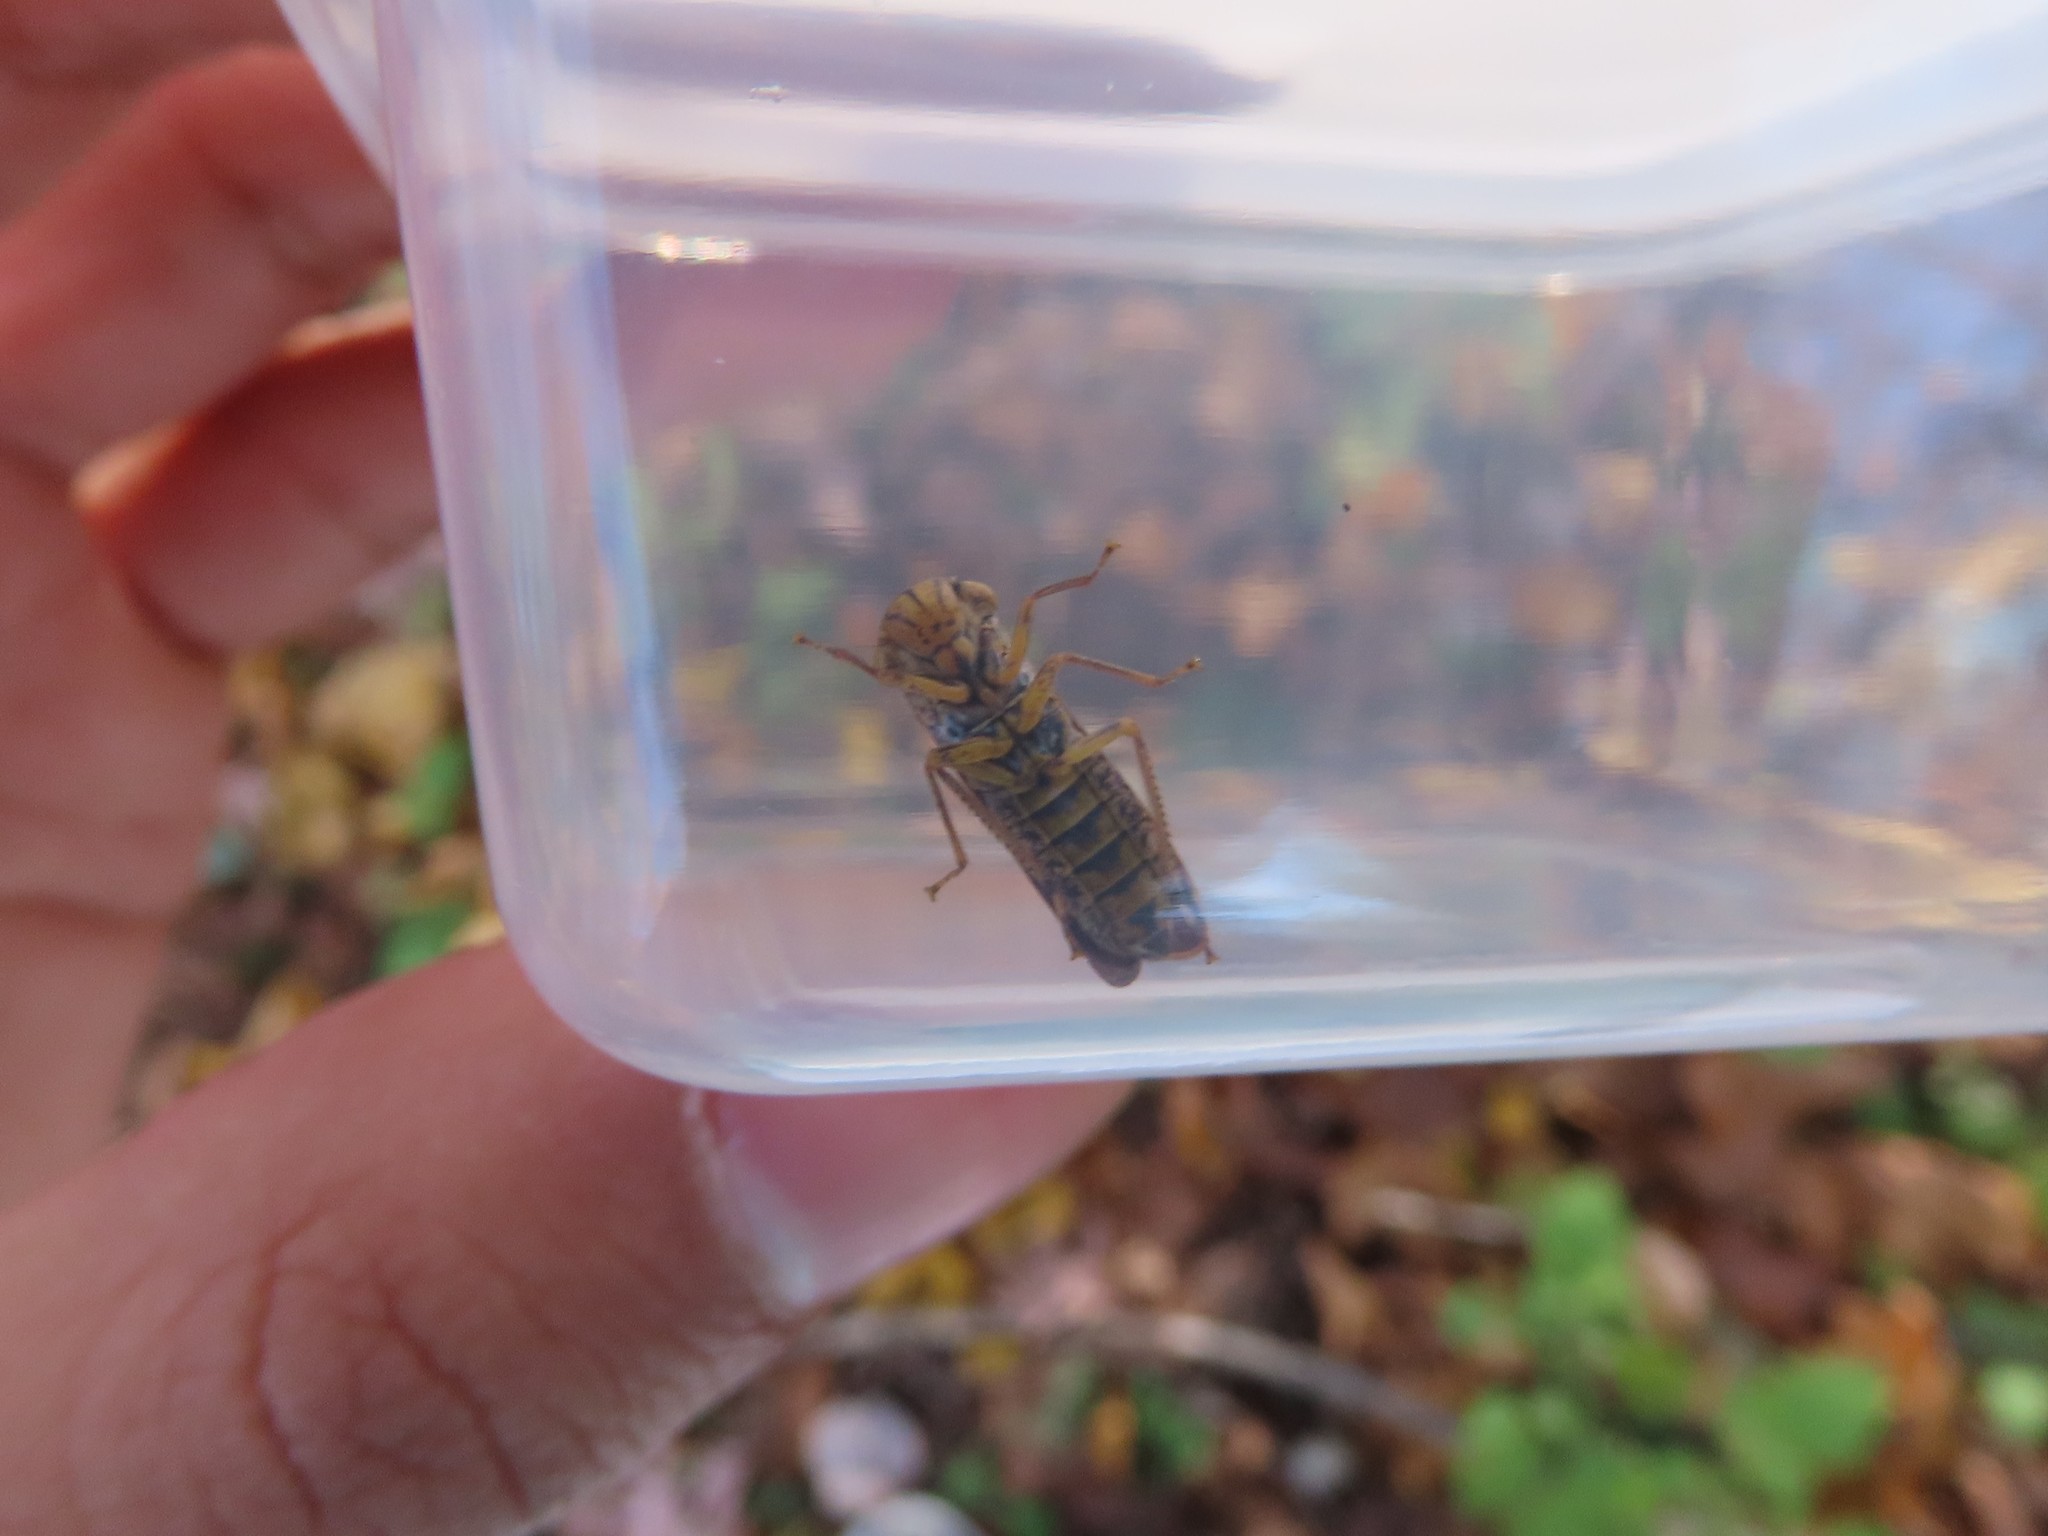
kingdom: Animalia
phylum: Arthropoda
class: Insecta
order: Hemiptera
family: Cicadellidae
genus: Oncometopia
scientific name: Oncometopia orbona
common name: Broad-headed sharpshooter
